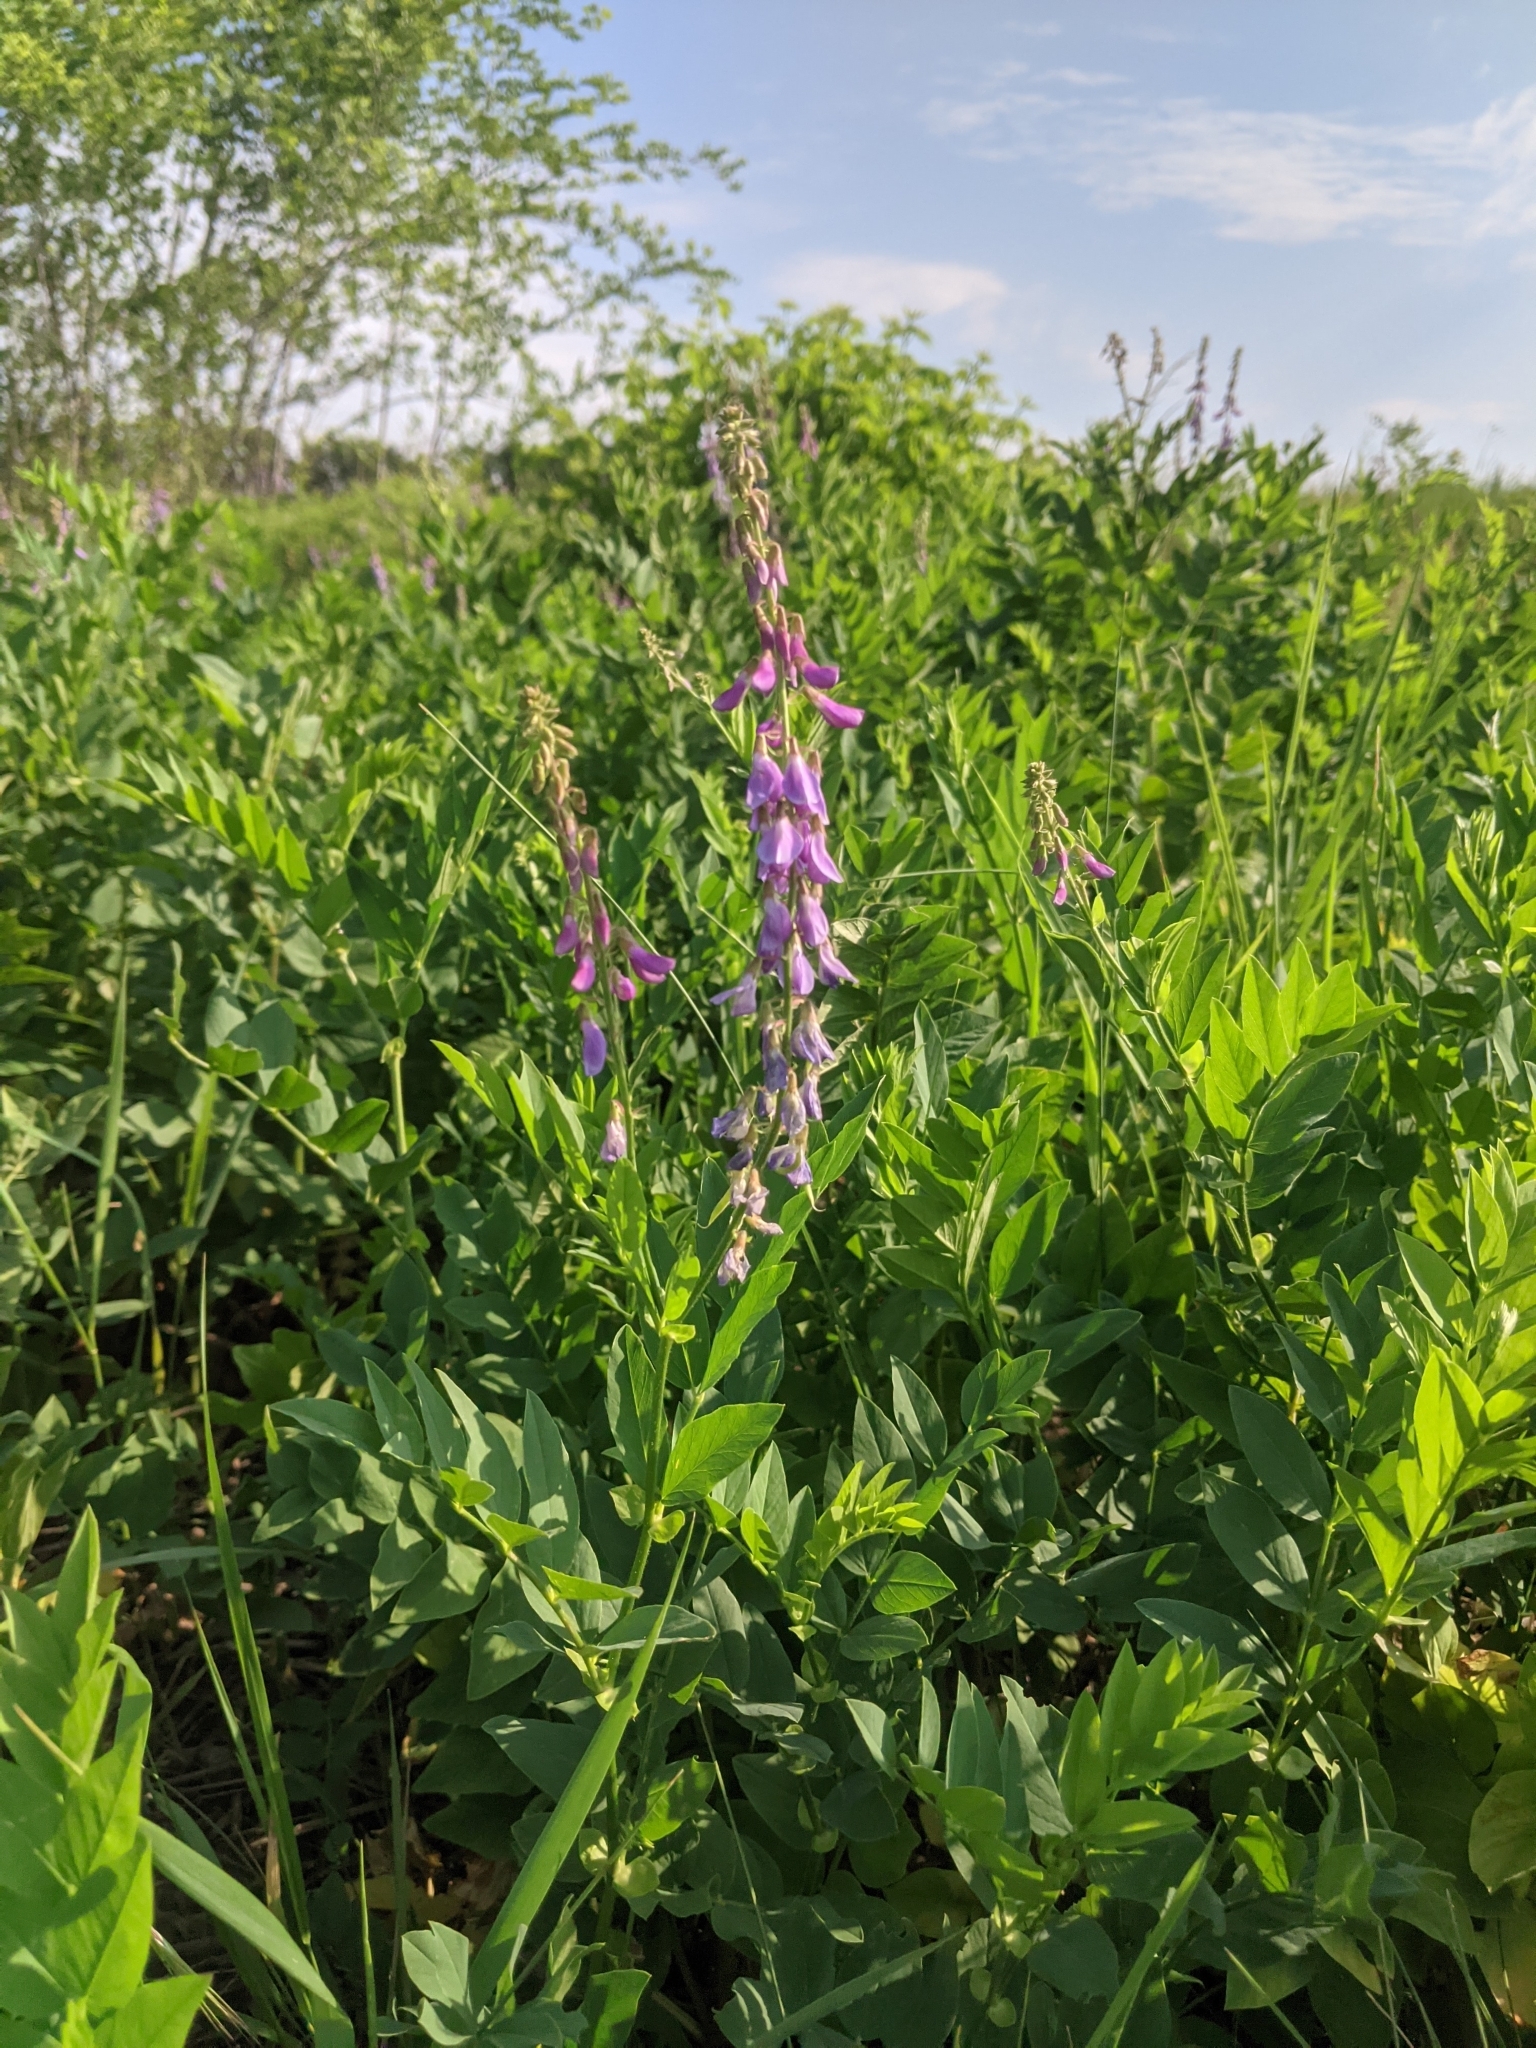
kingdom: Plantae
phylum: Tracheophyta
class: Magnoliopsida
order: Fabales
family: Fabaceae
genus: Galega
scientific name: Galega orientalis
